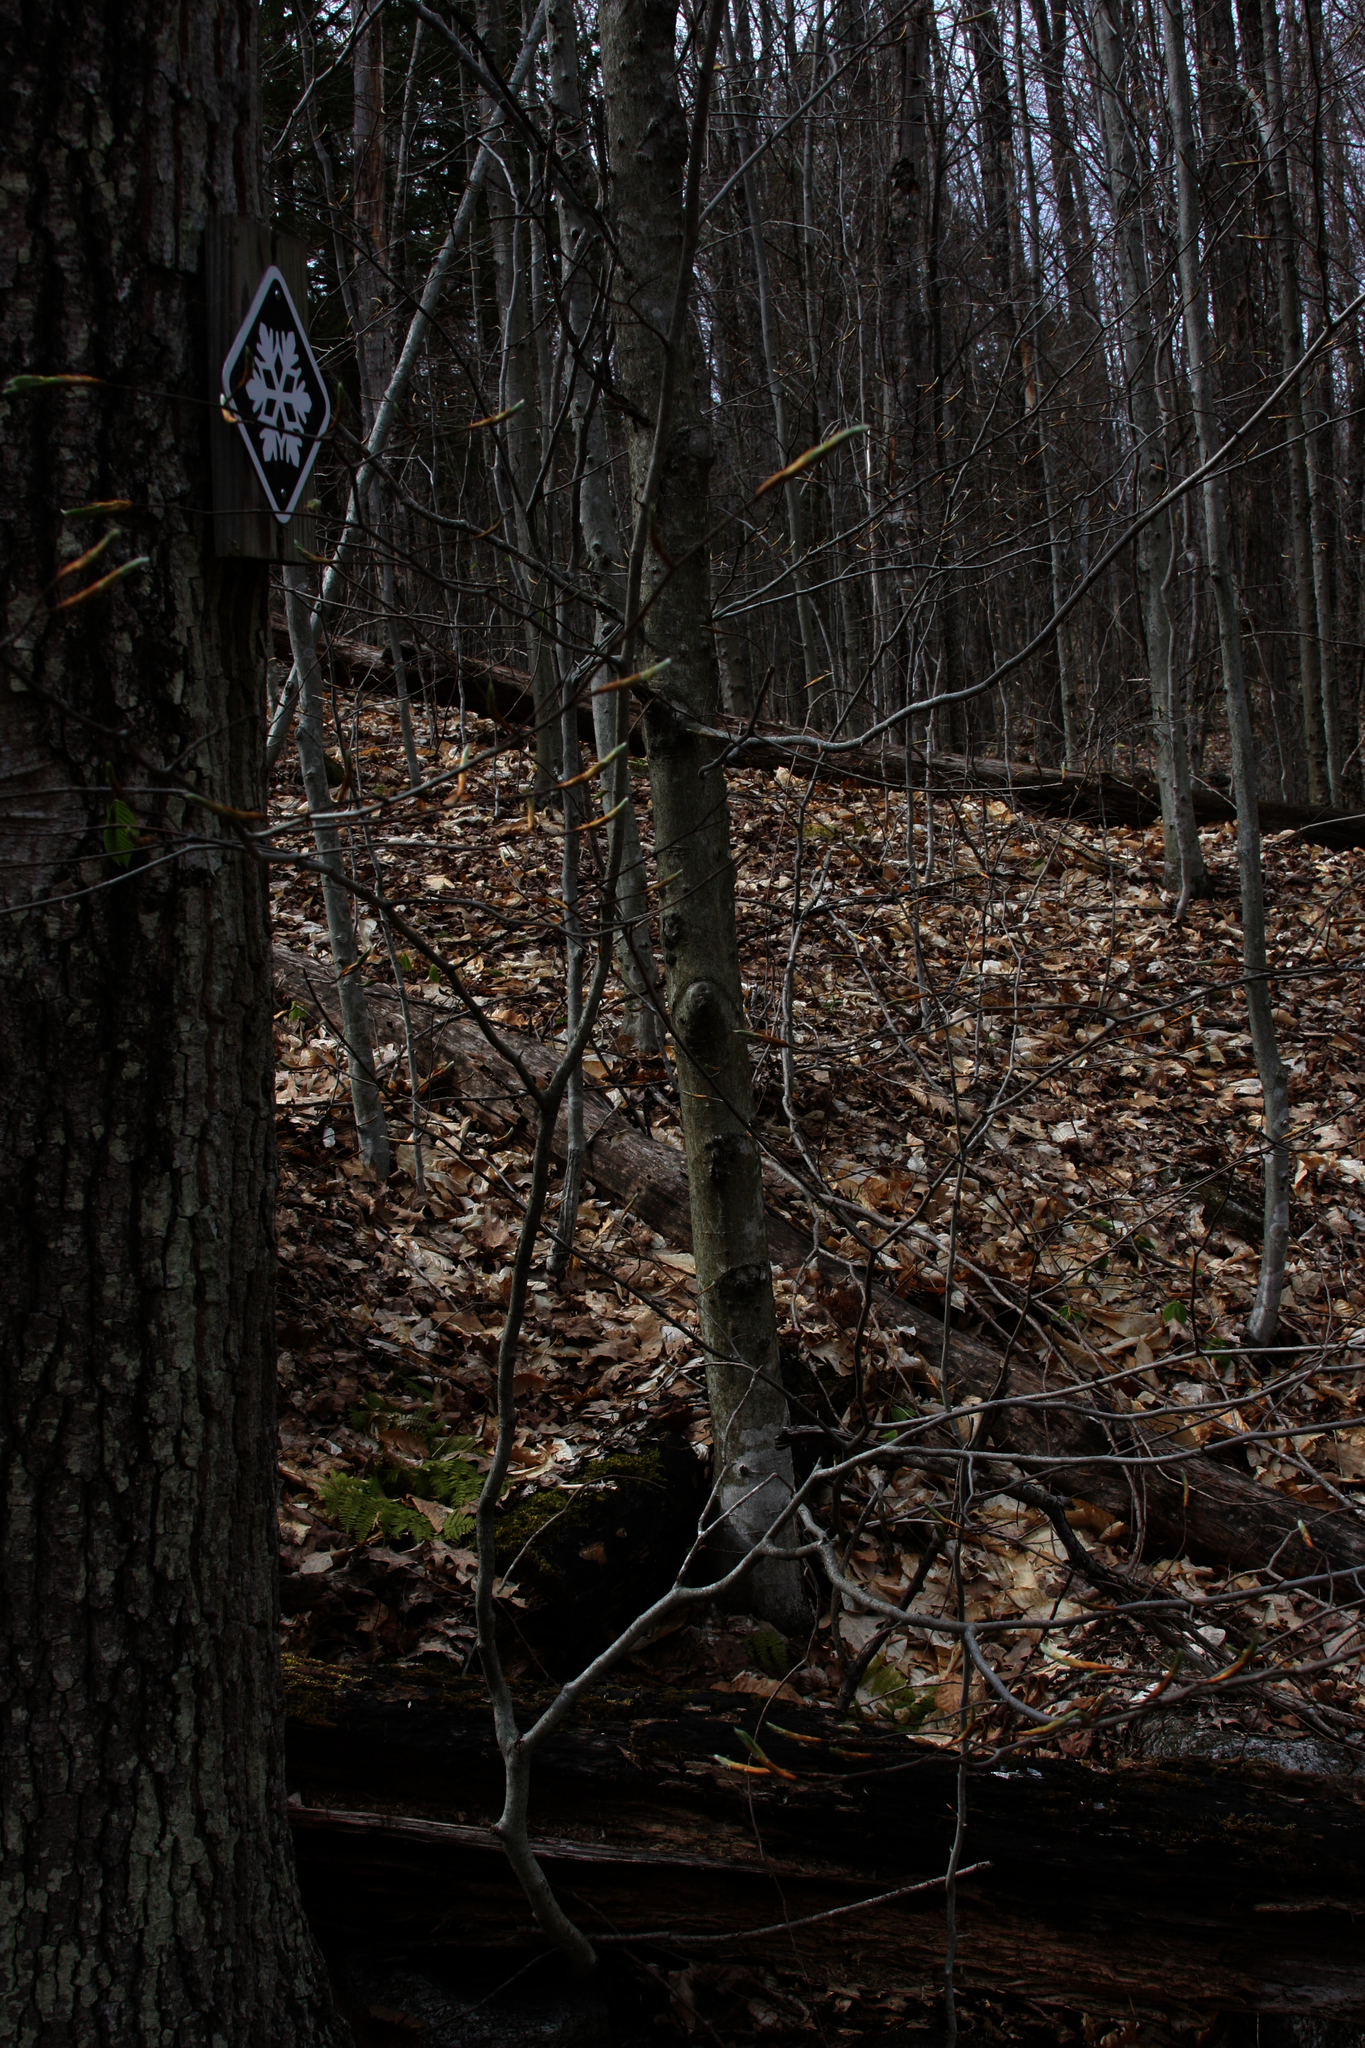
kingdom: Plantae
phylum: Tracheophyta
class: Magnoliopsida
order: Fagales
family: Fagaceae
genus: Fagus
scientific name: Fagus grandifolia
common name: American beech
